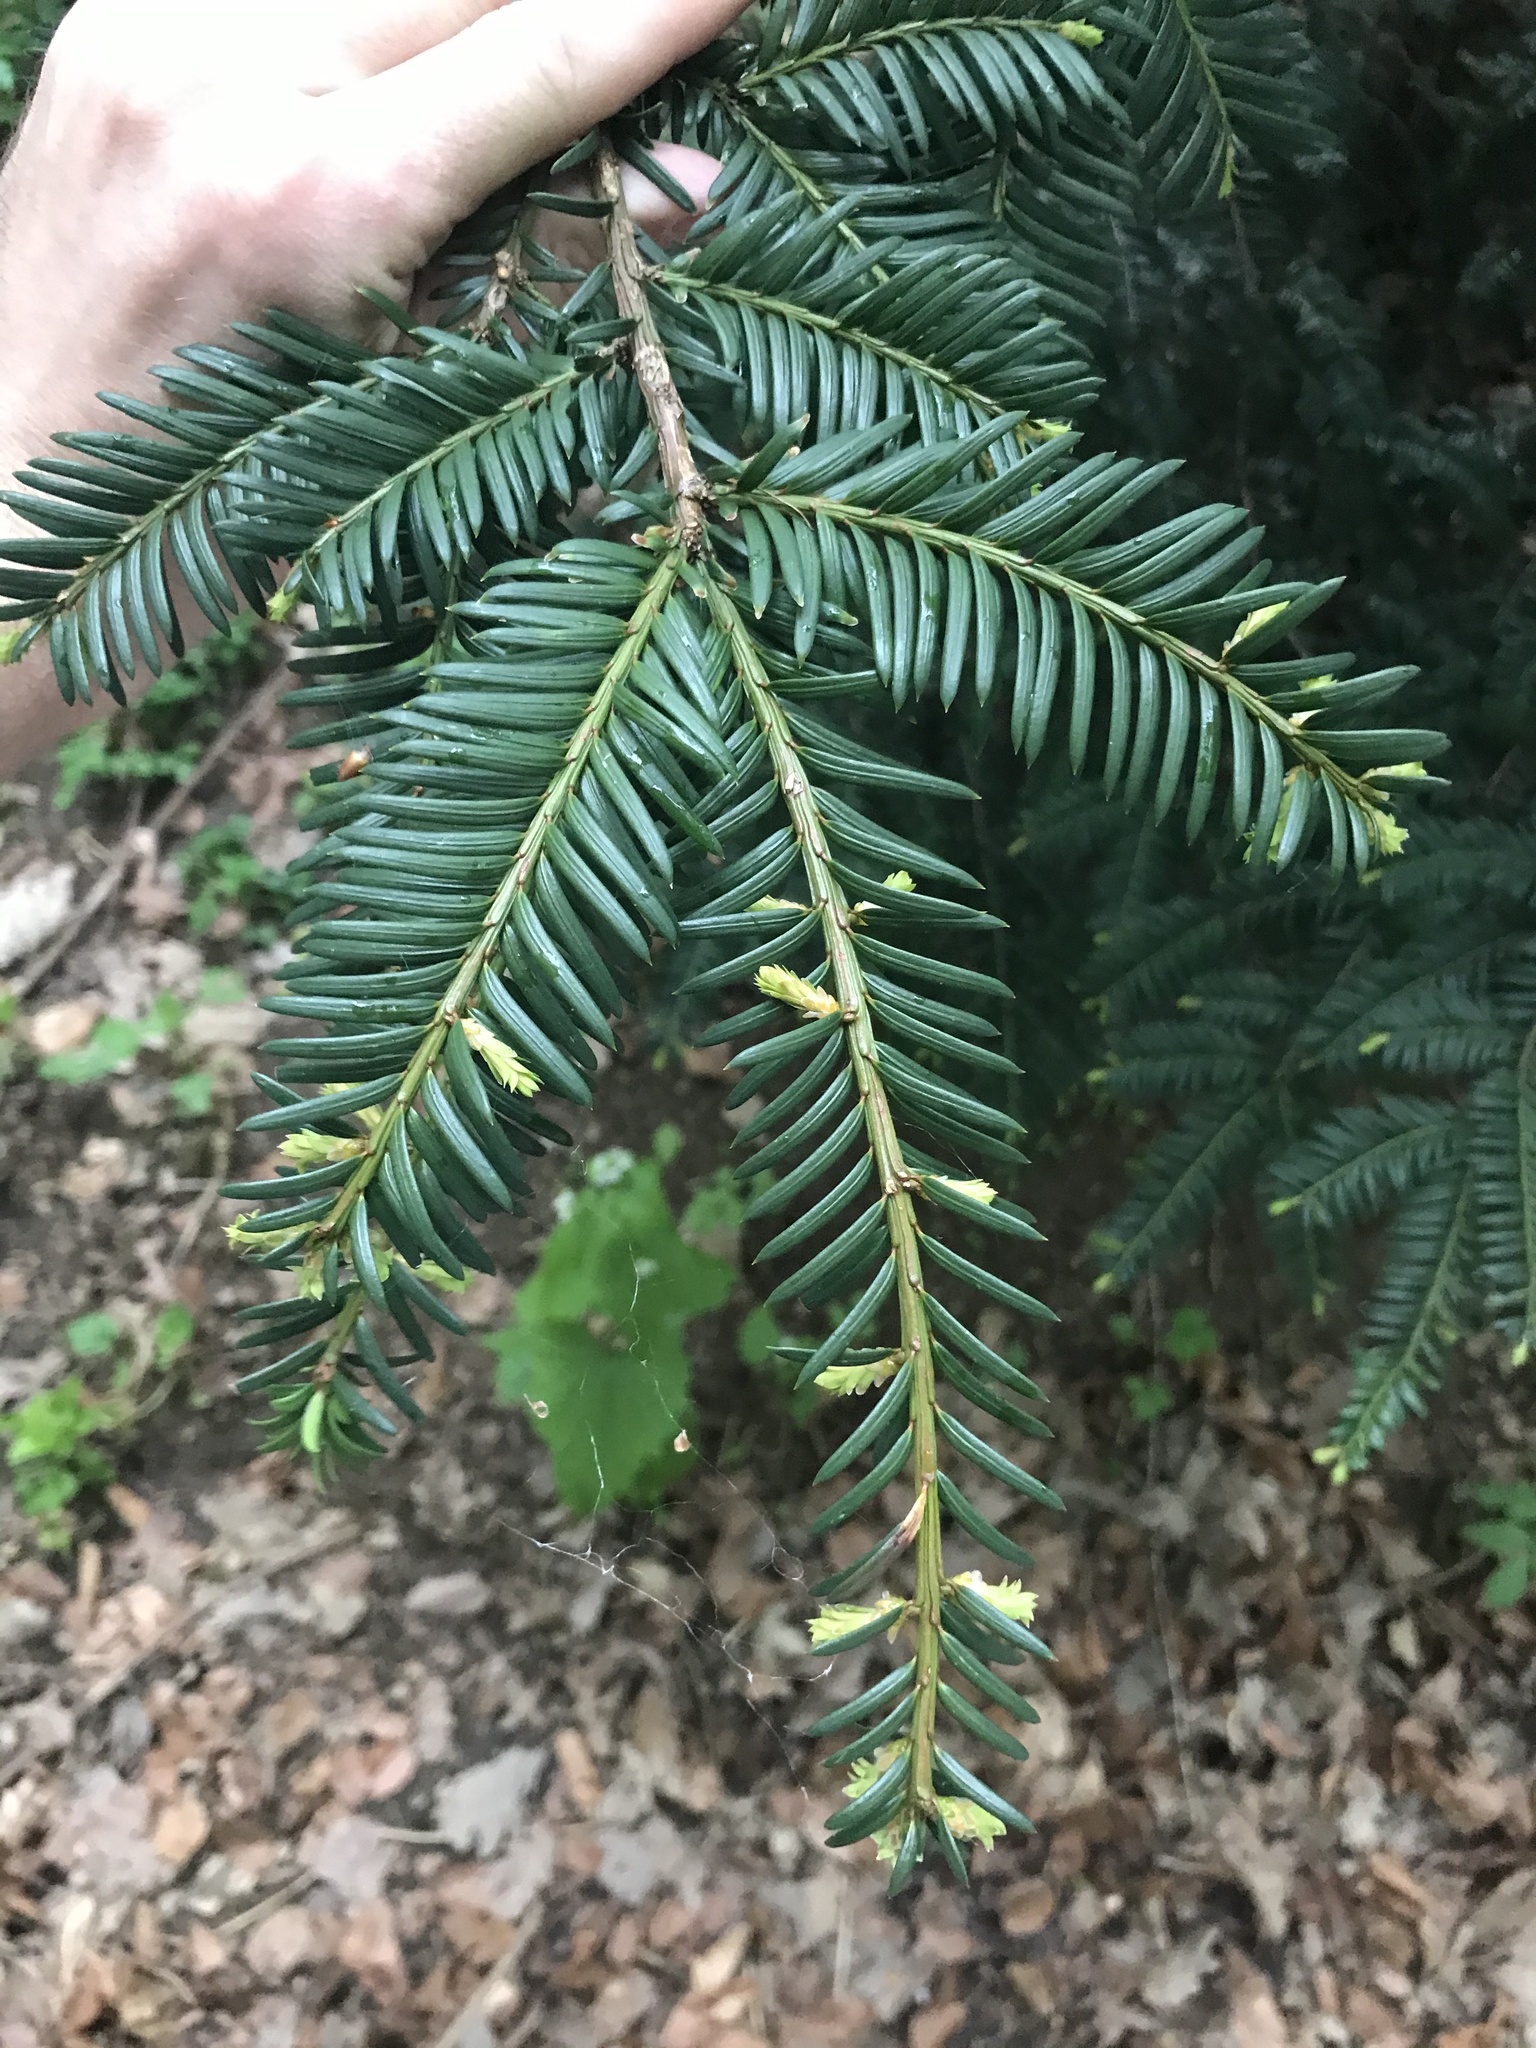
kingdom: Plantae
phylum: Tracheophyta
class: Pinopsida
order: Pinales
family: Taxaceae
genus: Taxus
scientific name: Taxus baccata
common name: Yew
